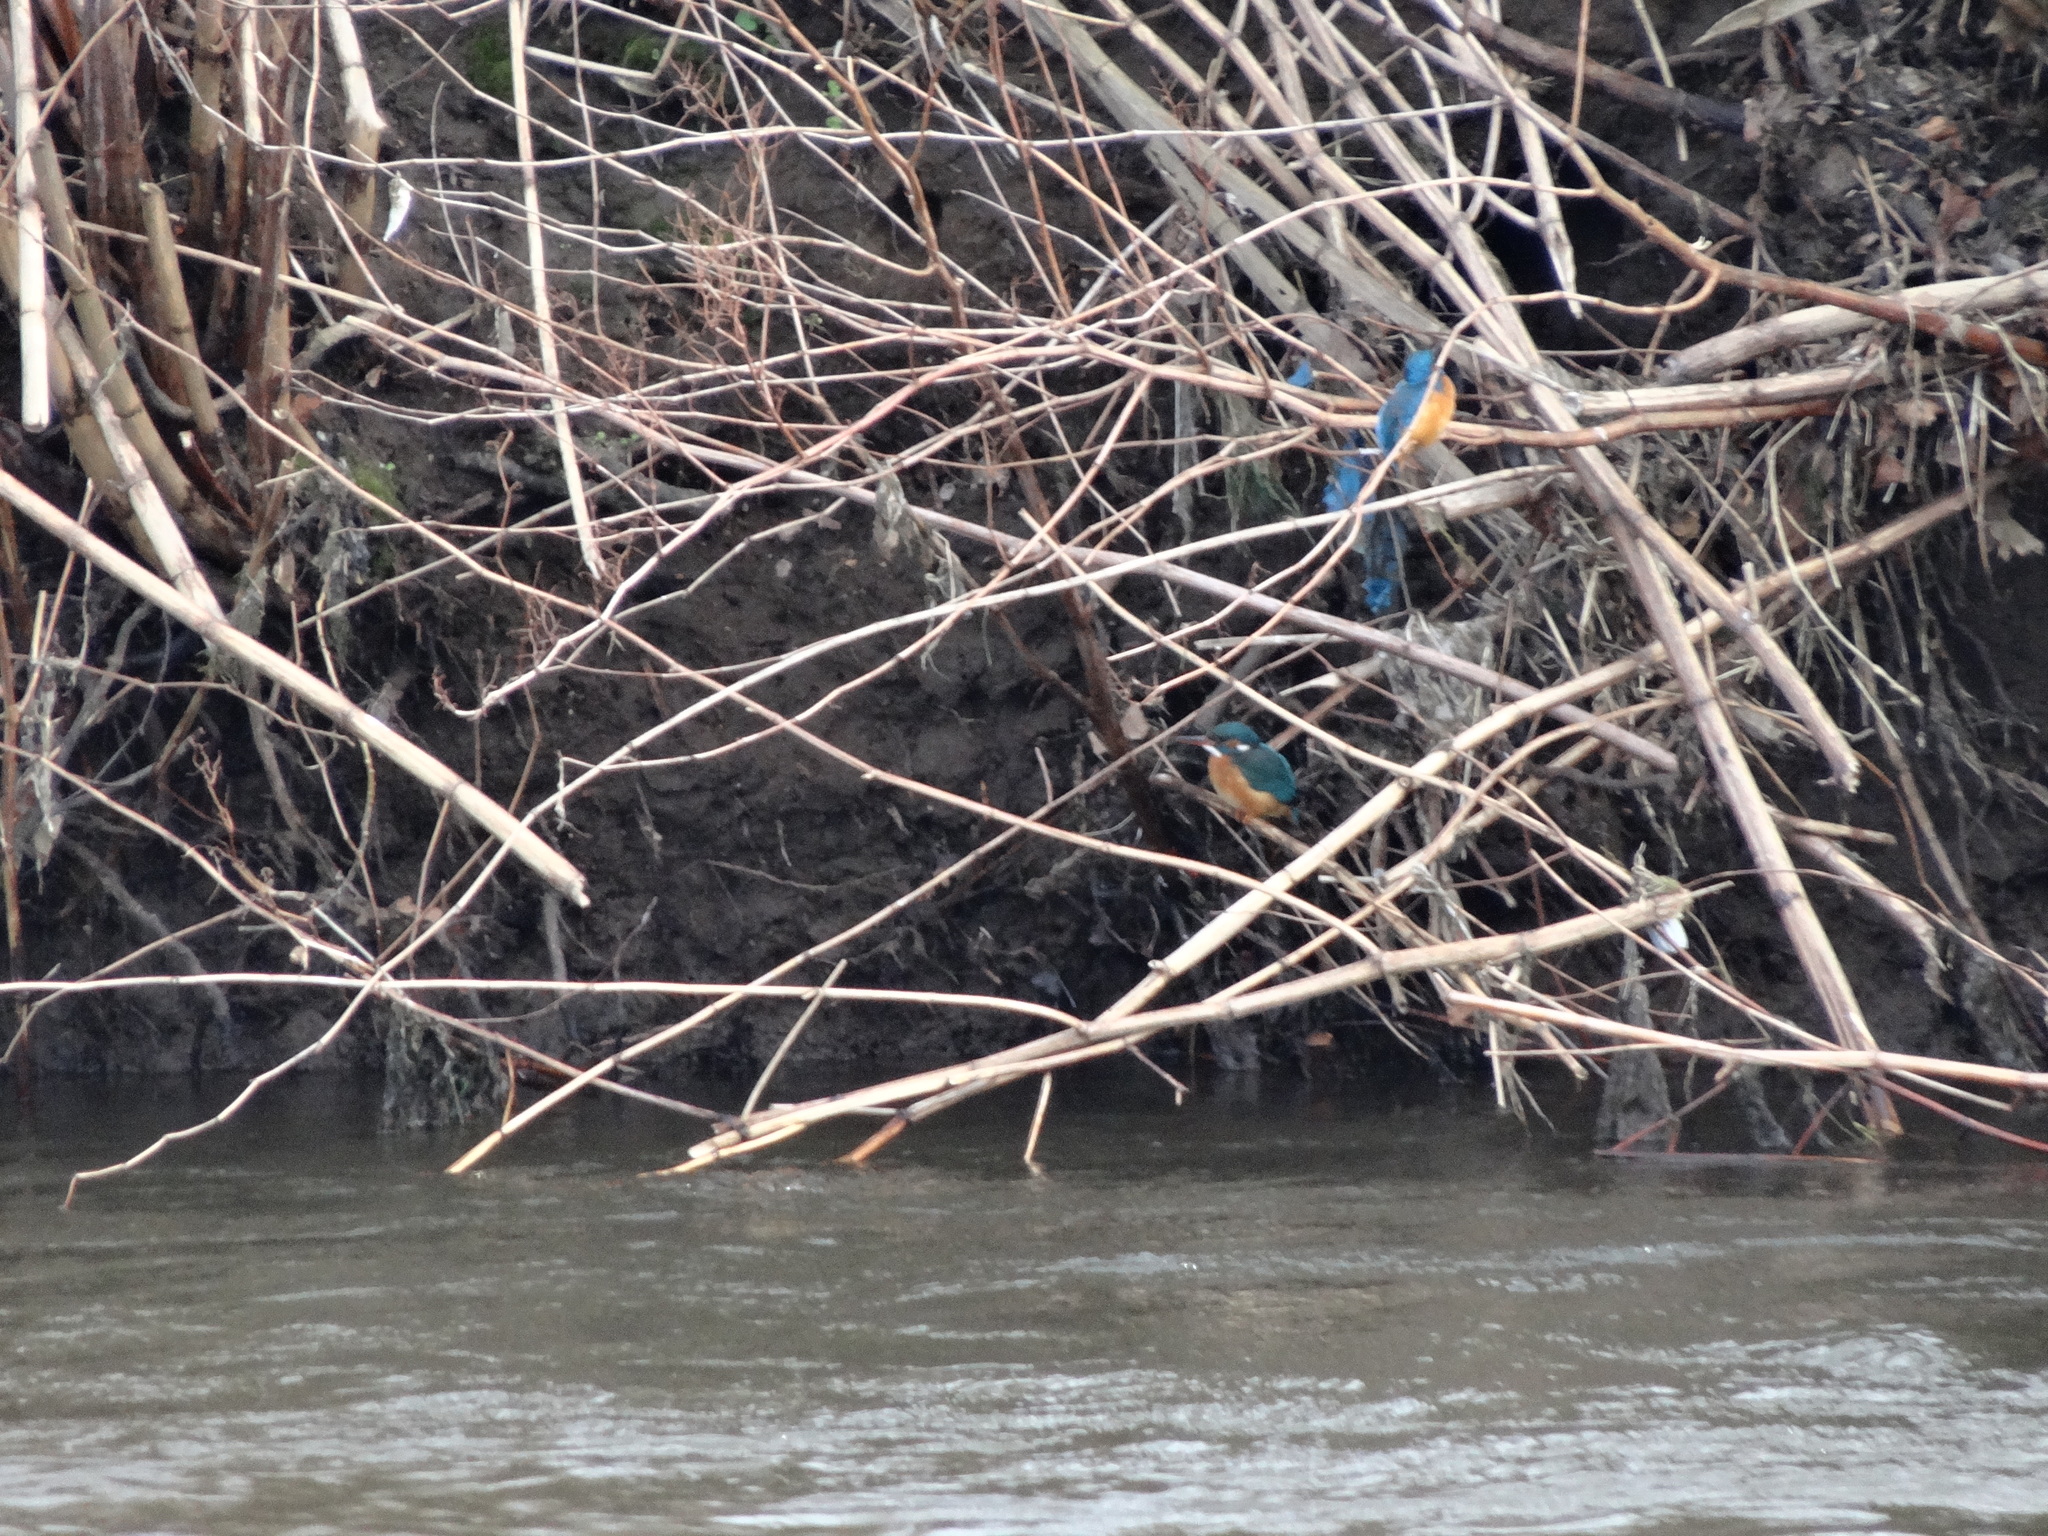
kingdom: Animalia
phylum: Chordata
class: Aves
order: Coraciiformes
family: Alcedinidae
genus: Alcedo
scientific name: Alcedo atthis
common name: Common kingfisher
